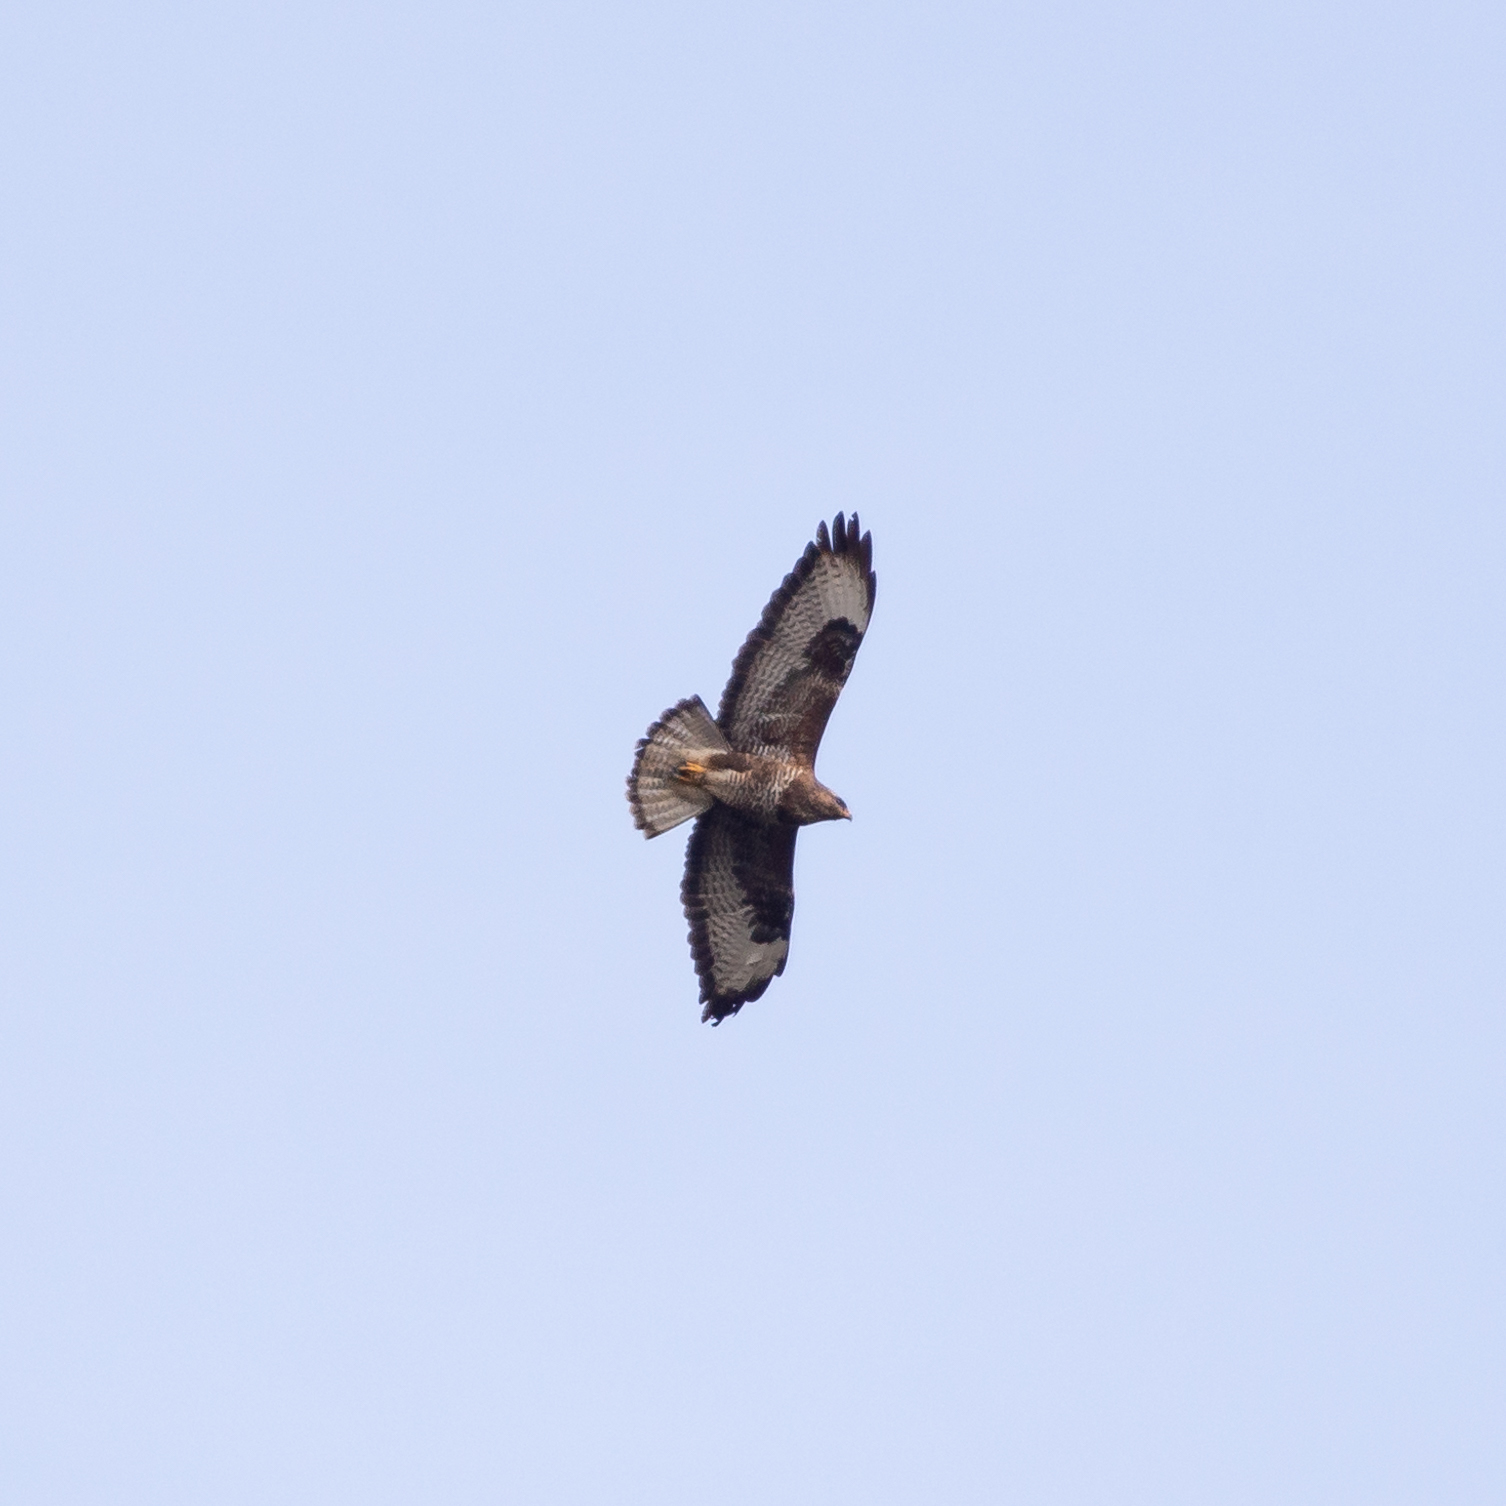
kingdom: Animalia
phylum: Chordata
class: Aves
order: Accipitriformes
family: Accipitridae
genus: Buteo
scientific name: Buteo buteo
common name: Common buzzard
